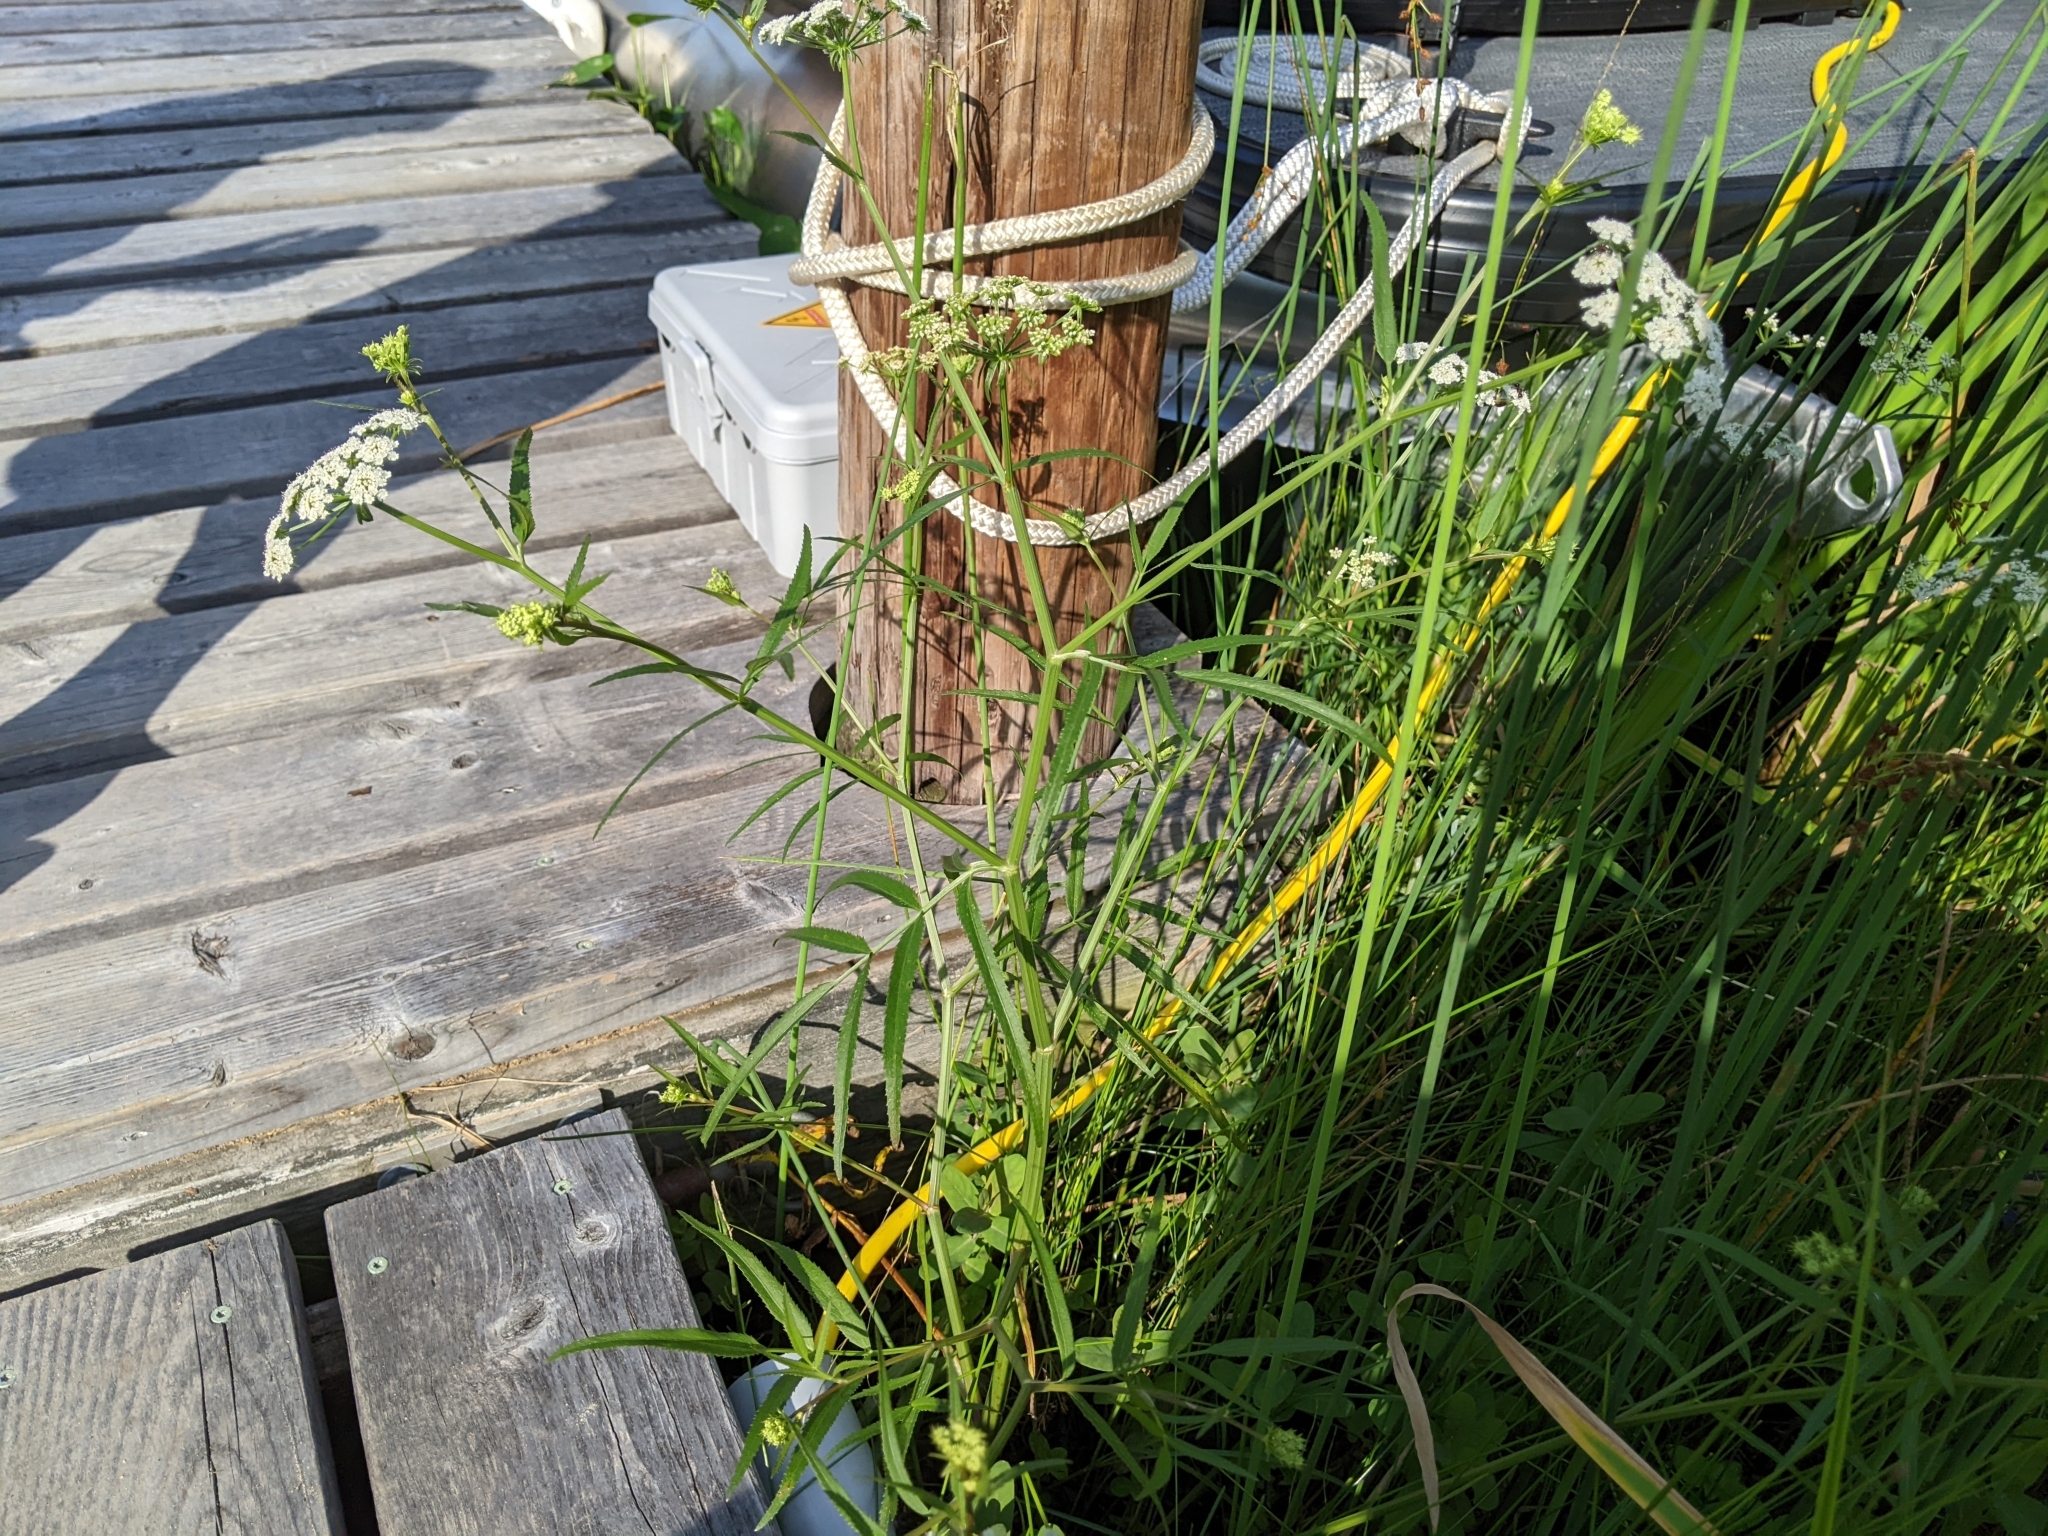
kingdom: Plantae
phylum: Tracheophyta
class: Magnoliopsida
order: Apiales
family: Apiaceae
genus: Sium
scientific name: Sium suave
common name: Hemlock water-parsnip
